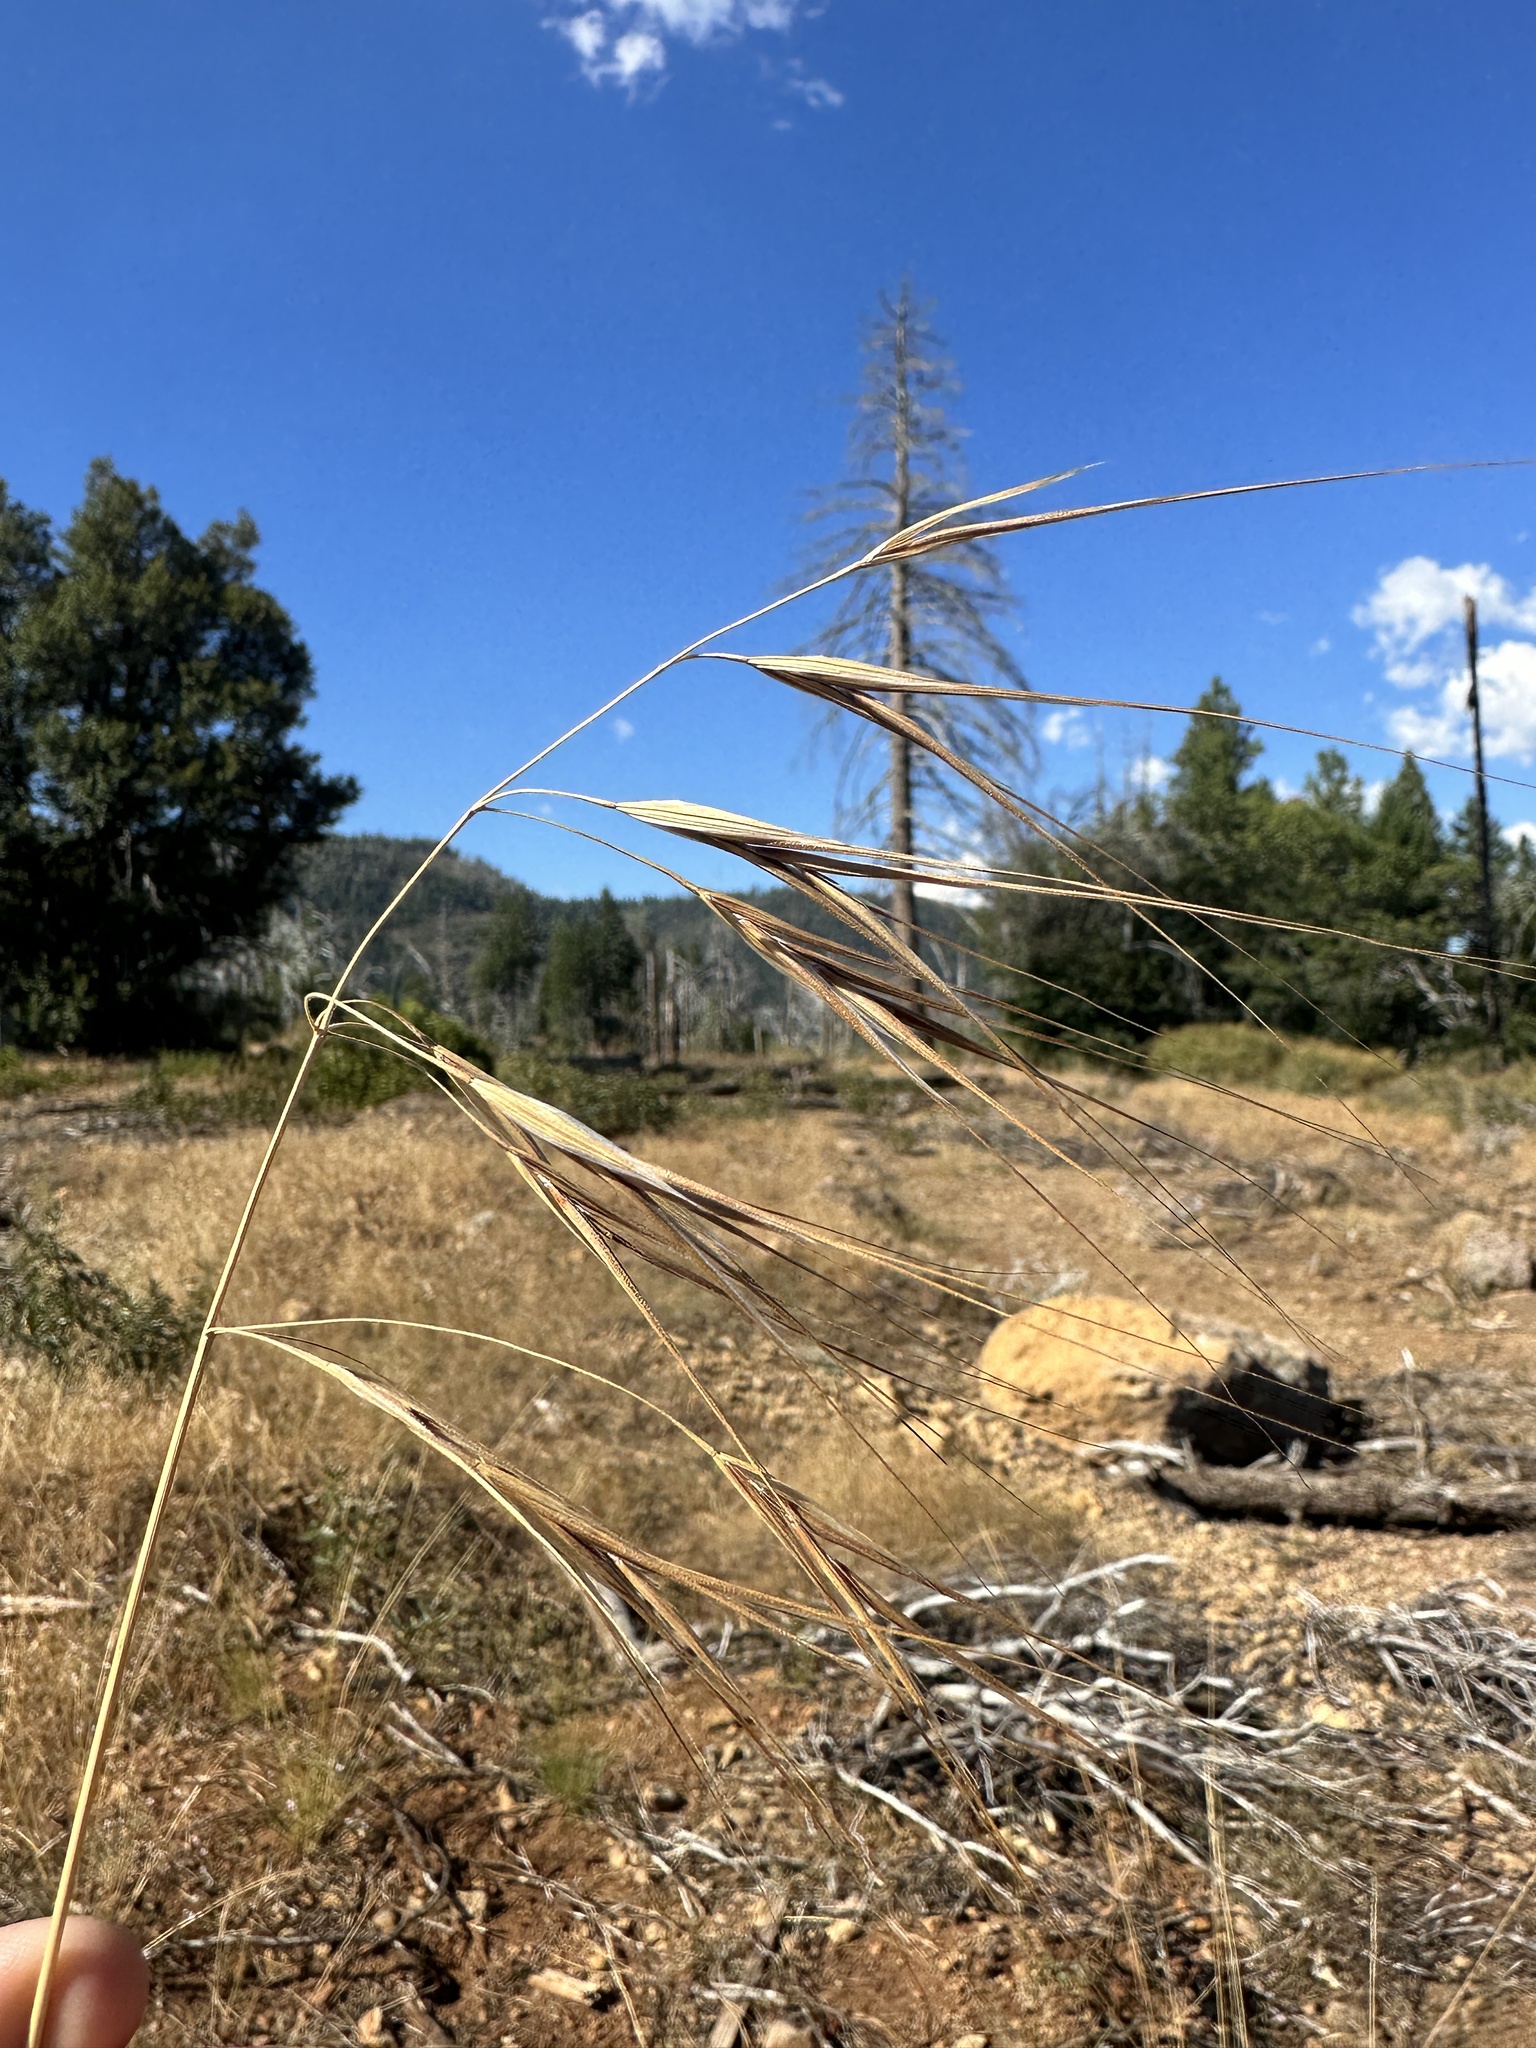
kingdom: Plantae
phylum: Tracheophyta
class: Liliopsida
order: Poales
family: Poaceae
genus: Bromus
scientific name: Bromus diandrus
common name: Ripgut brome
